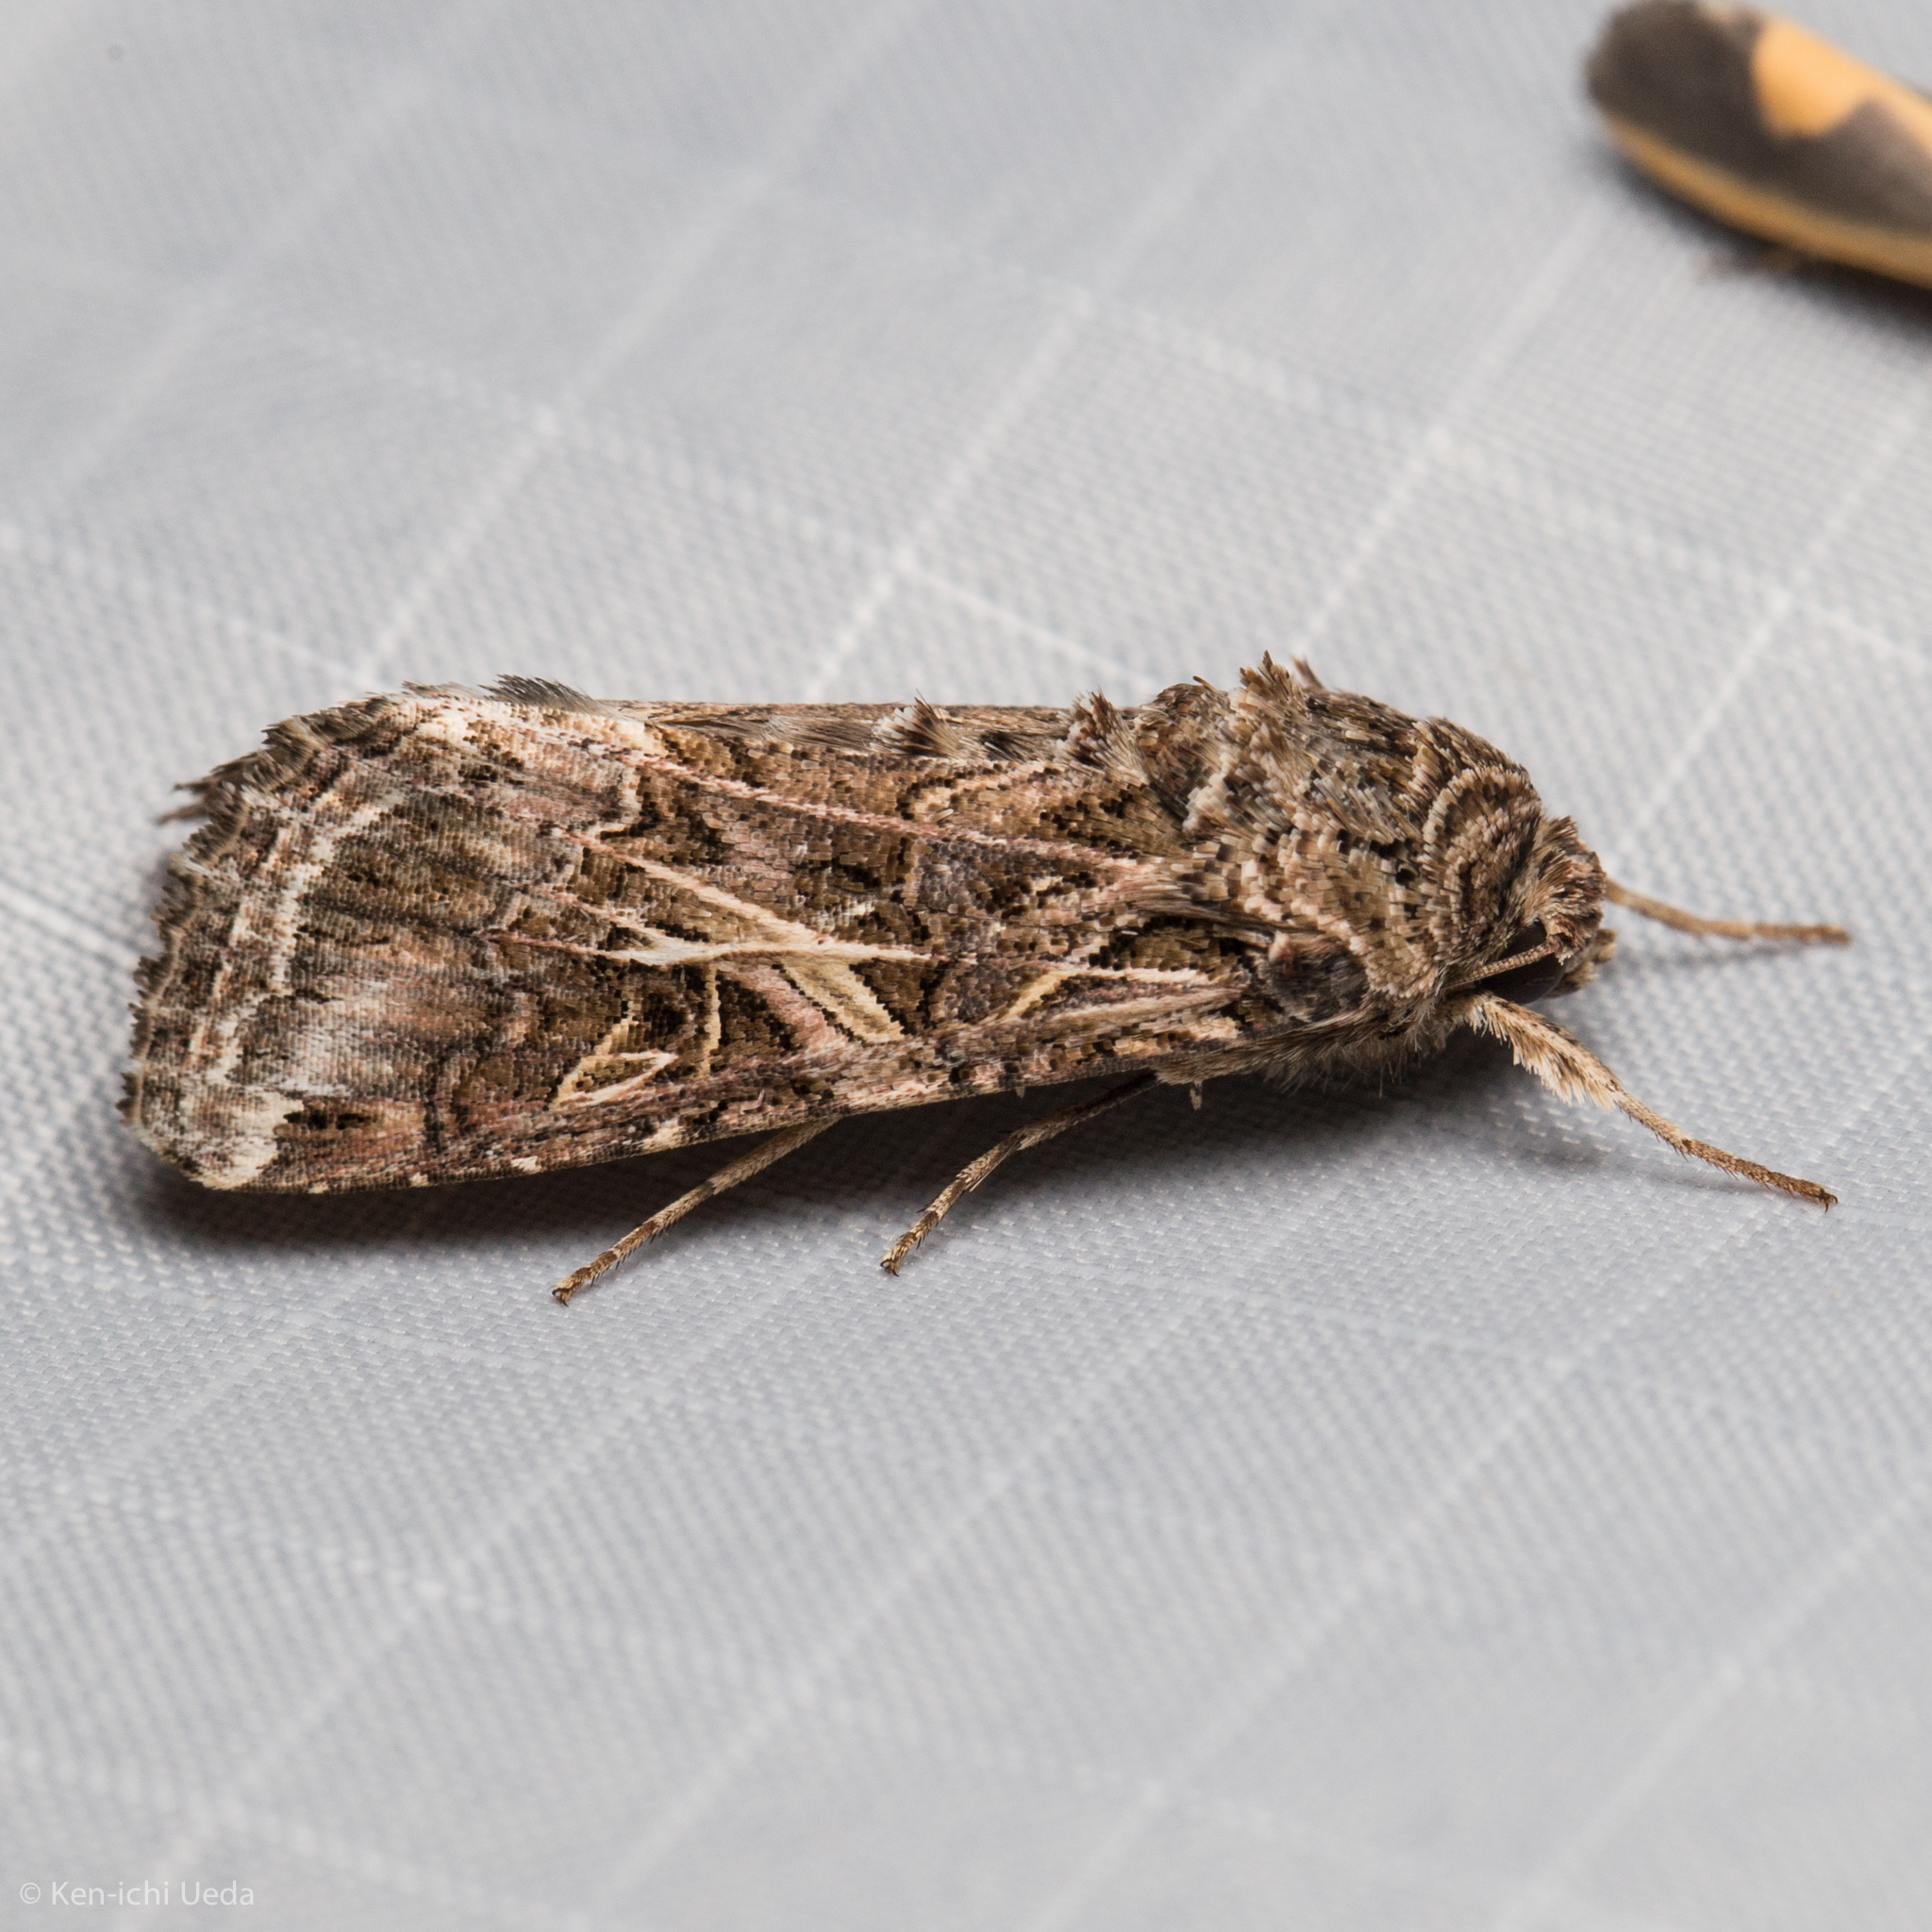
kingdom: Animalia
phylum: Arthropoda
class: Insecta
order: Lepidoptera
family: Noctuidae
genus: Spodoptera
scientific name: Spodoptera ornithogalli
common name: Yellow-striped armyworm
